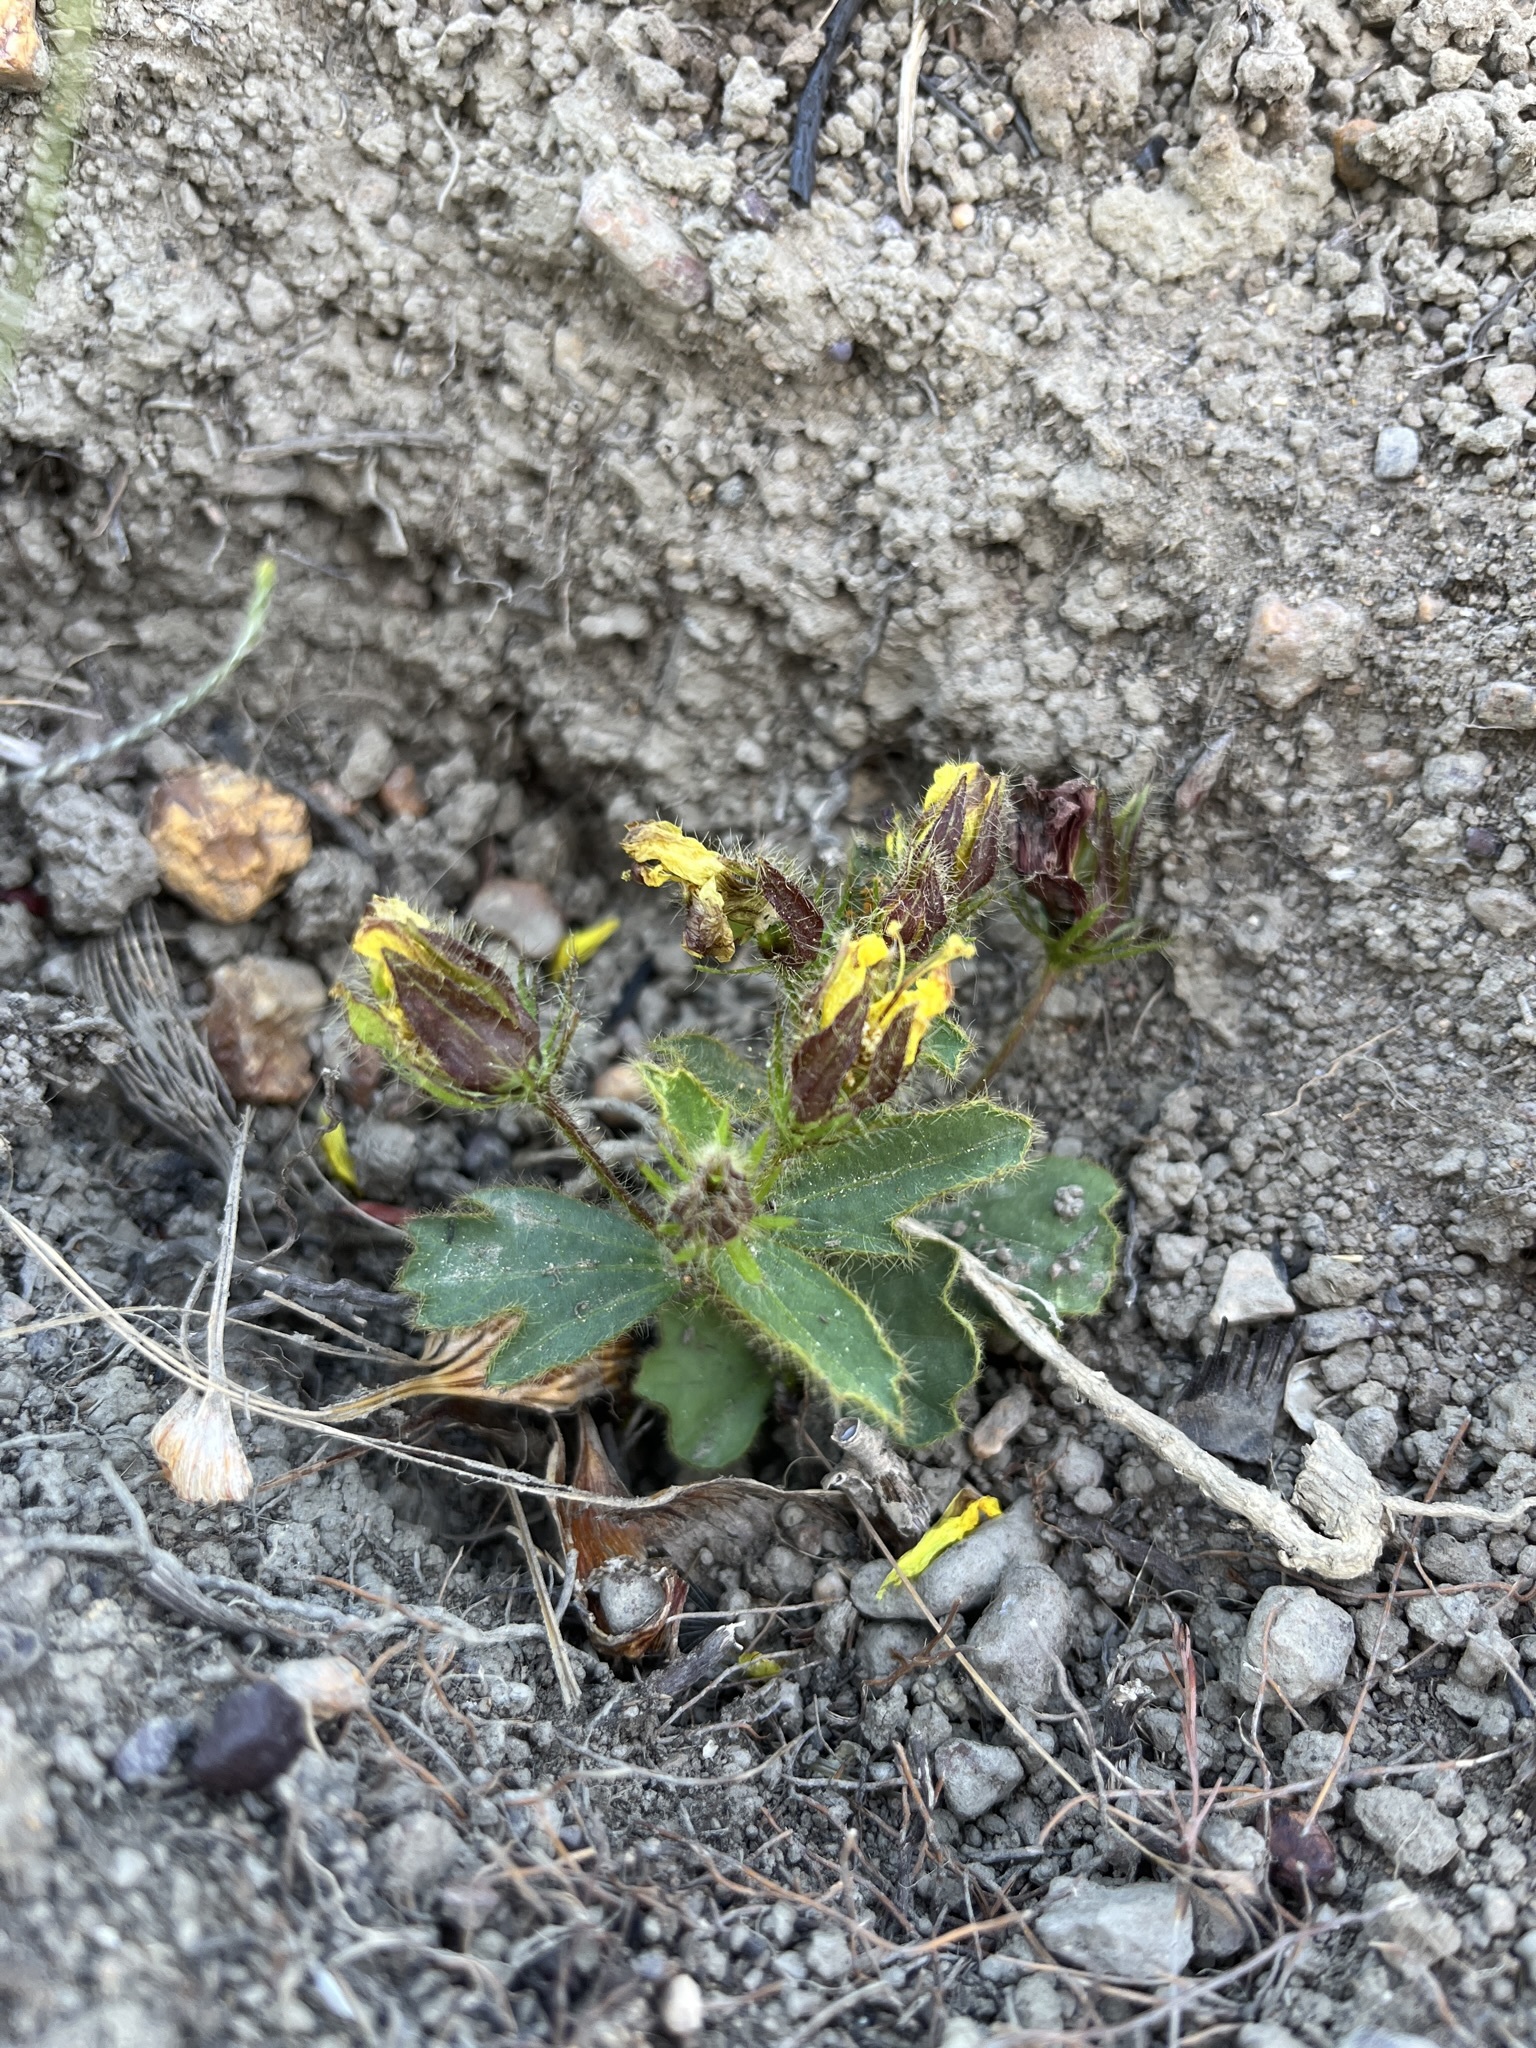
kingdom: Plantae
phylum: Tracheophyta
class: Magnoliopsida
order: Malvales
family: Malvaceae
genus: Hibiscus
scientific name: Hibiscus aethiopicus
